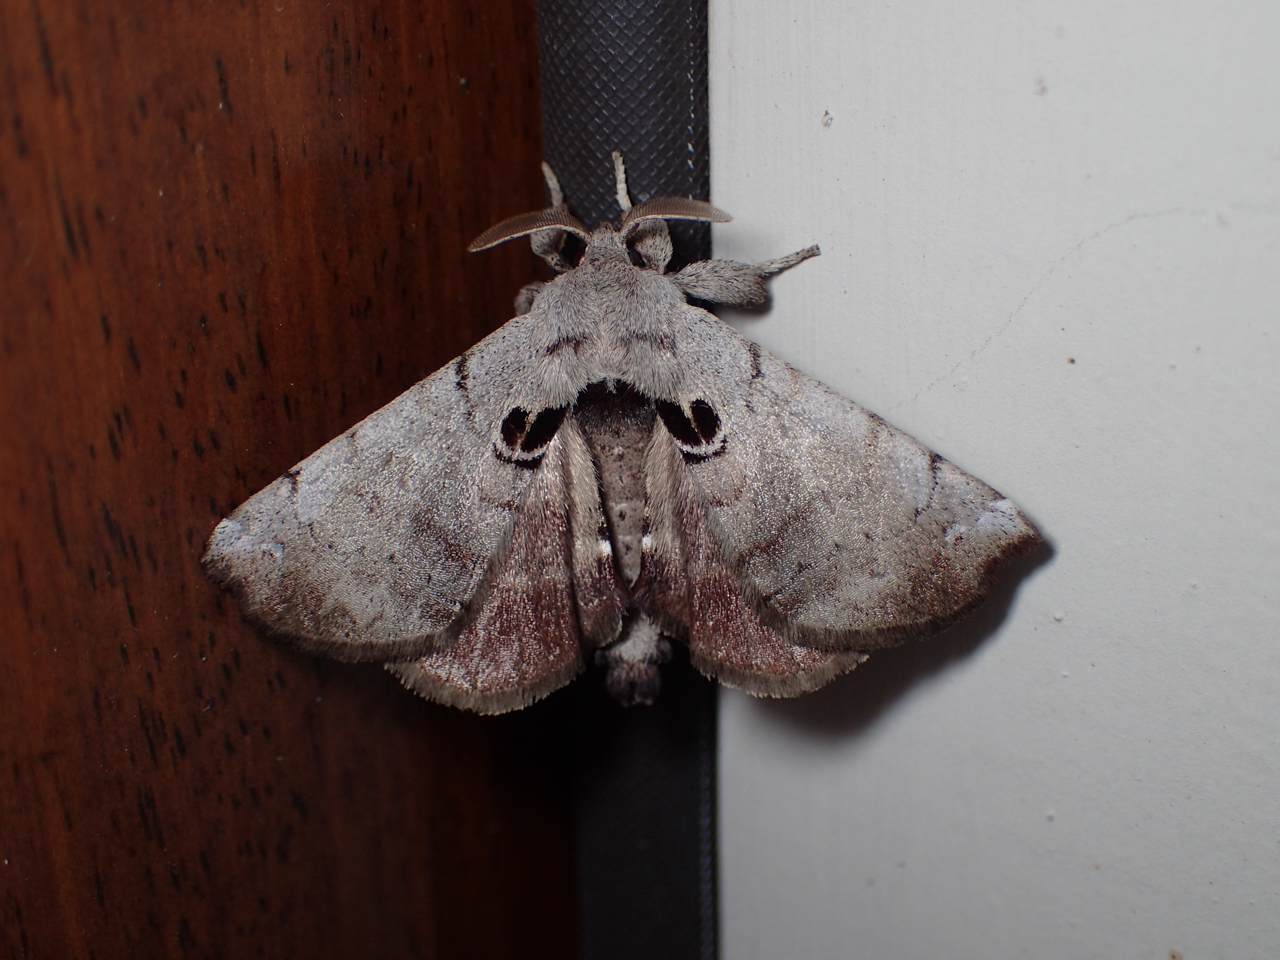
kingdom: Animalia
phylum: Arthropoda
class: Insecta
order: Lepidoptera
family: Apatelodidae
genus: Hygrochroa
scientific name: Hygrochroa Apatelodes torrefacta
